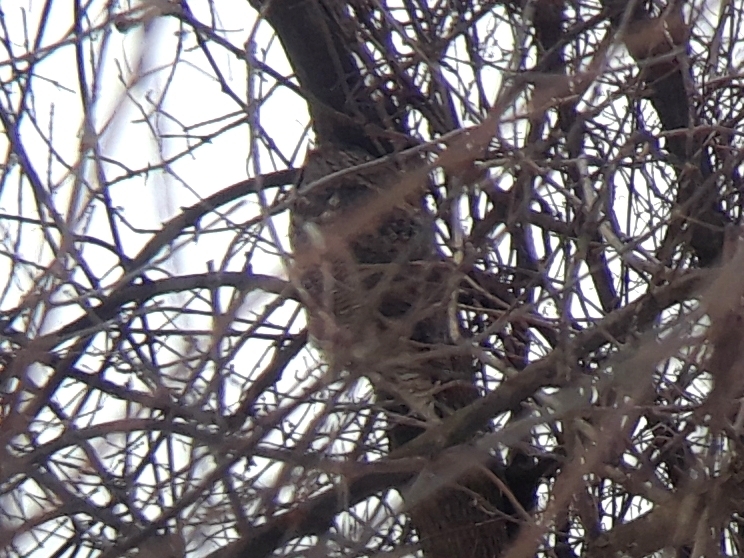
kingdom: Animalia
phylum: Chordata
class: Aves
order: Strigiformes
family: Strigidae
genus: Bubo
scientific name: Bubo virginianus
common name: Great horned owl
